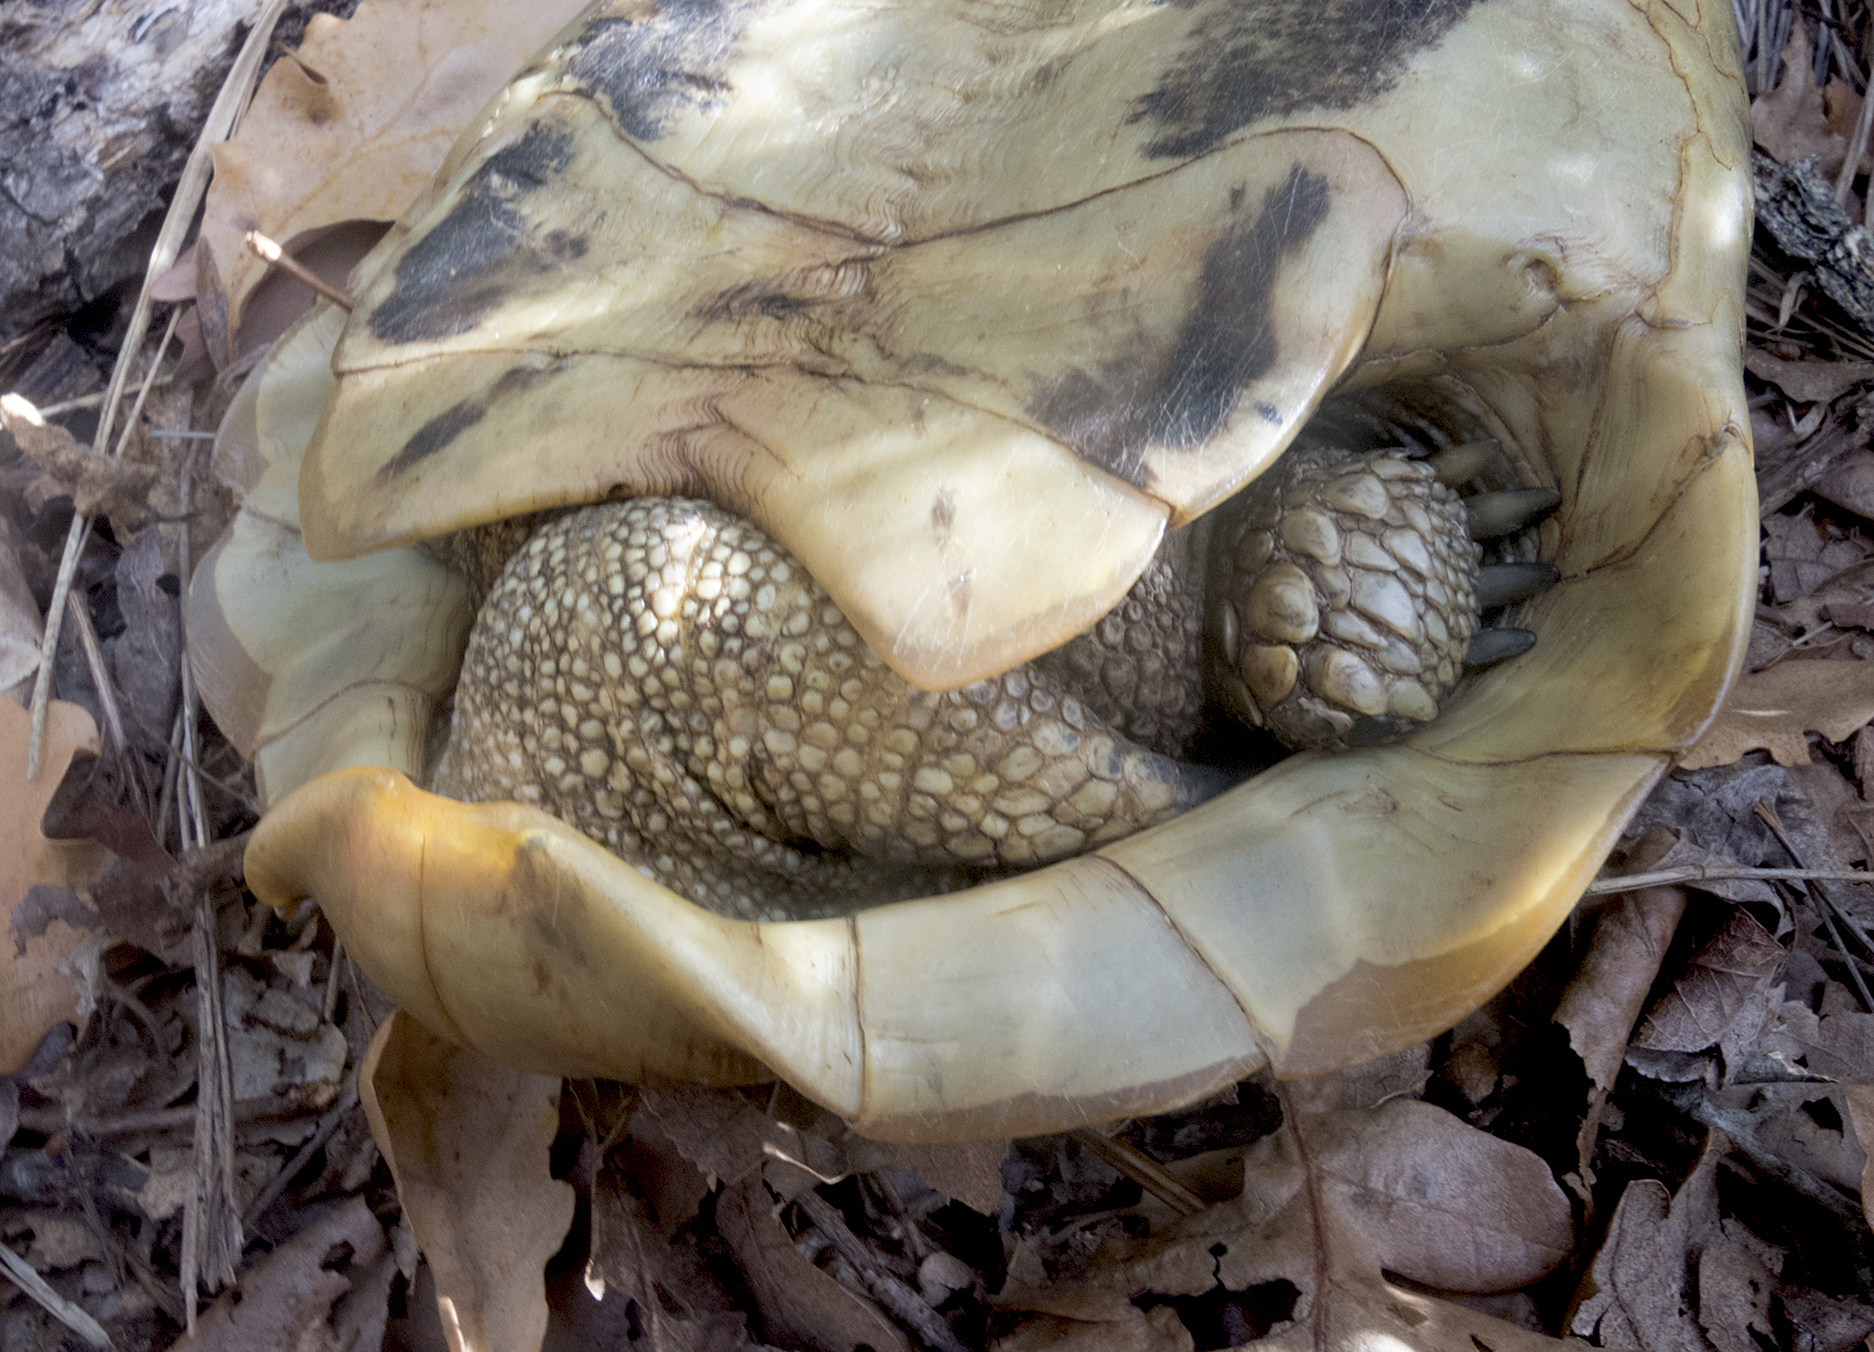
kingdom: Animalia
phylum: Chordata
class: Testudines
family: Testudinidae
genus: Testudo
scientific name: Testudo hermanni
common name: Hermann's tortoise
